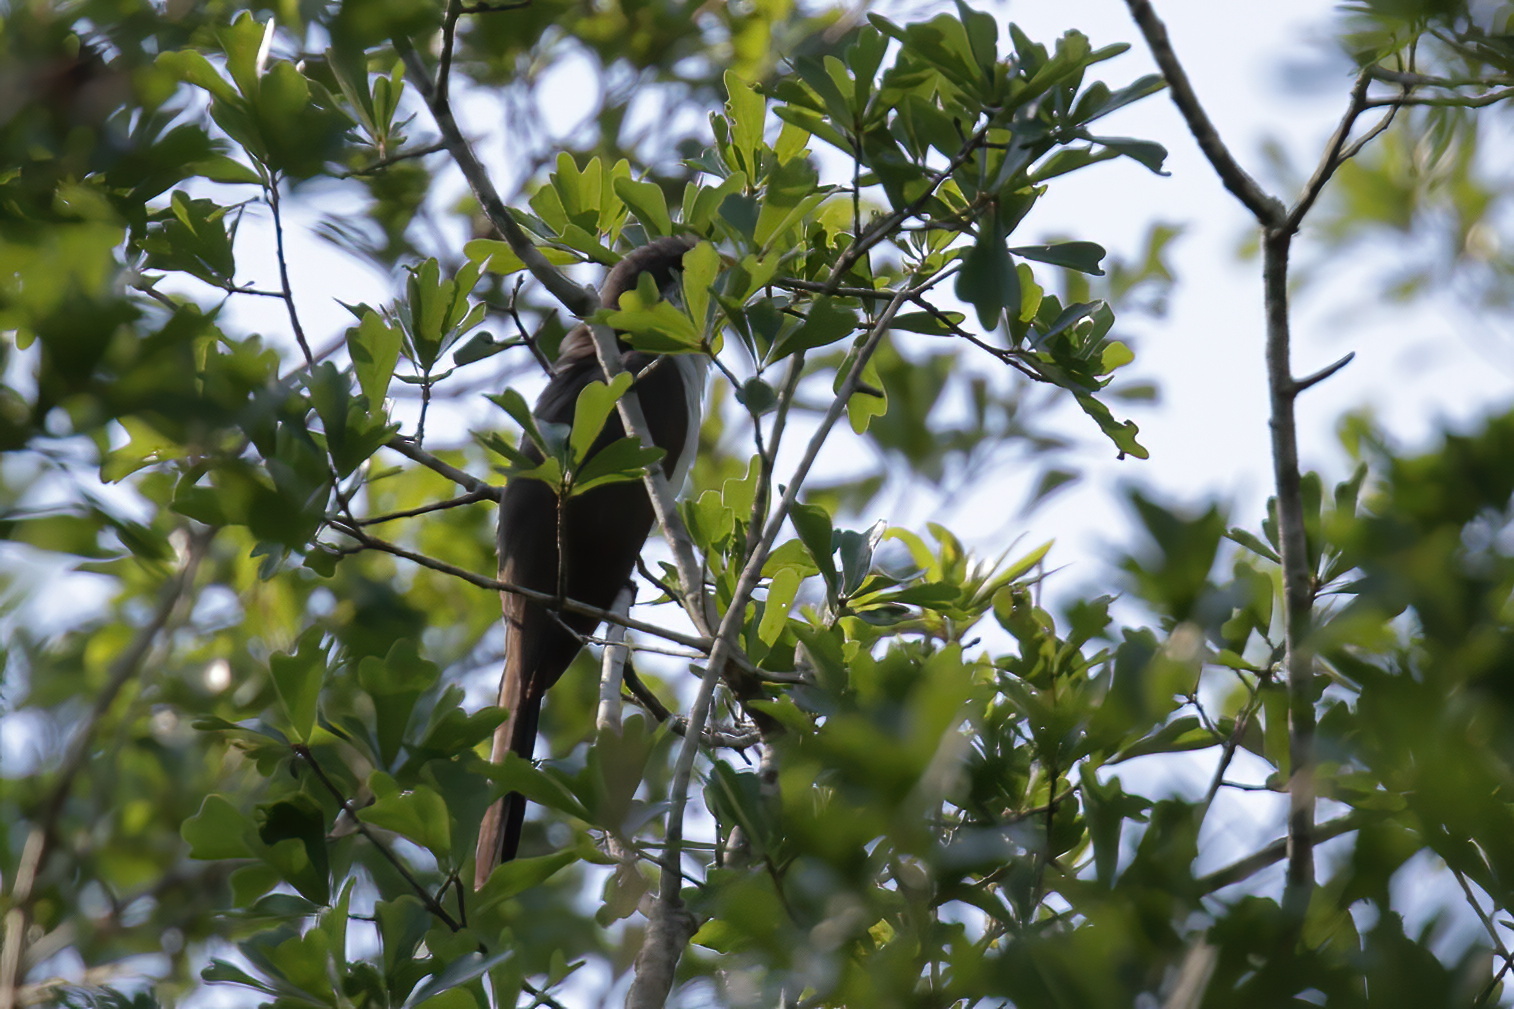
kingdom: Animalia
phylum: Chordata
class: Aves
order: Cuculiformes
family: Cuculidae
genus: Coccyzus
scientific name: Coccyzus americanus
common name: Yellow-billed cuckoo
